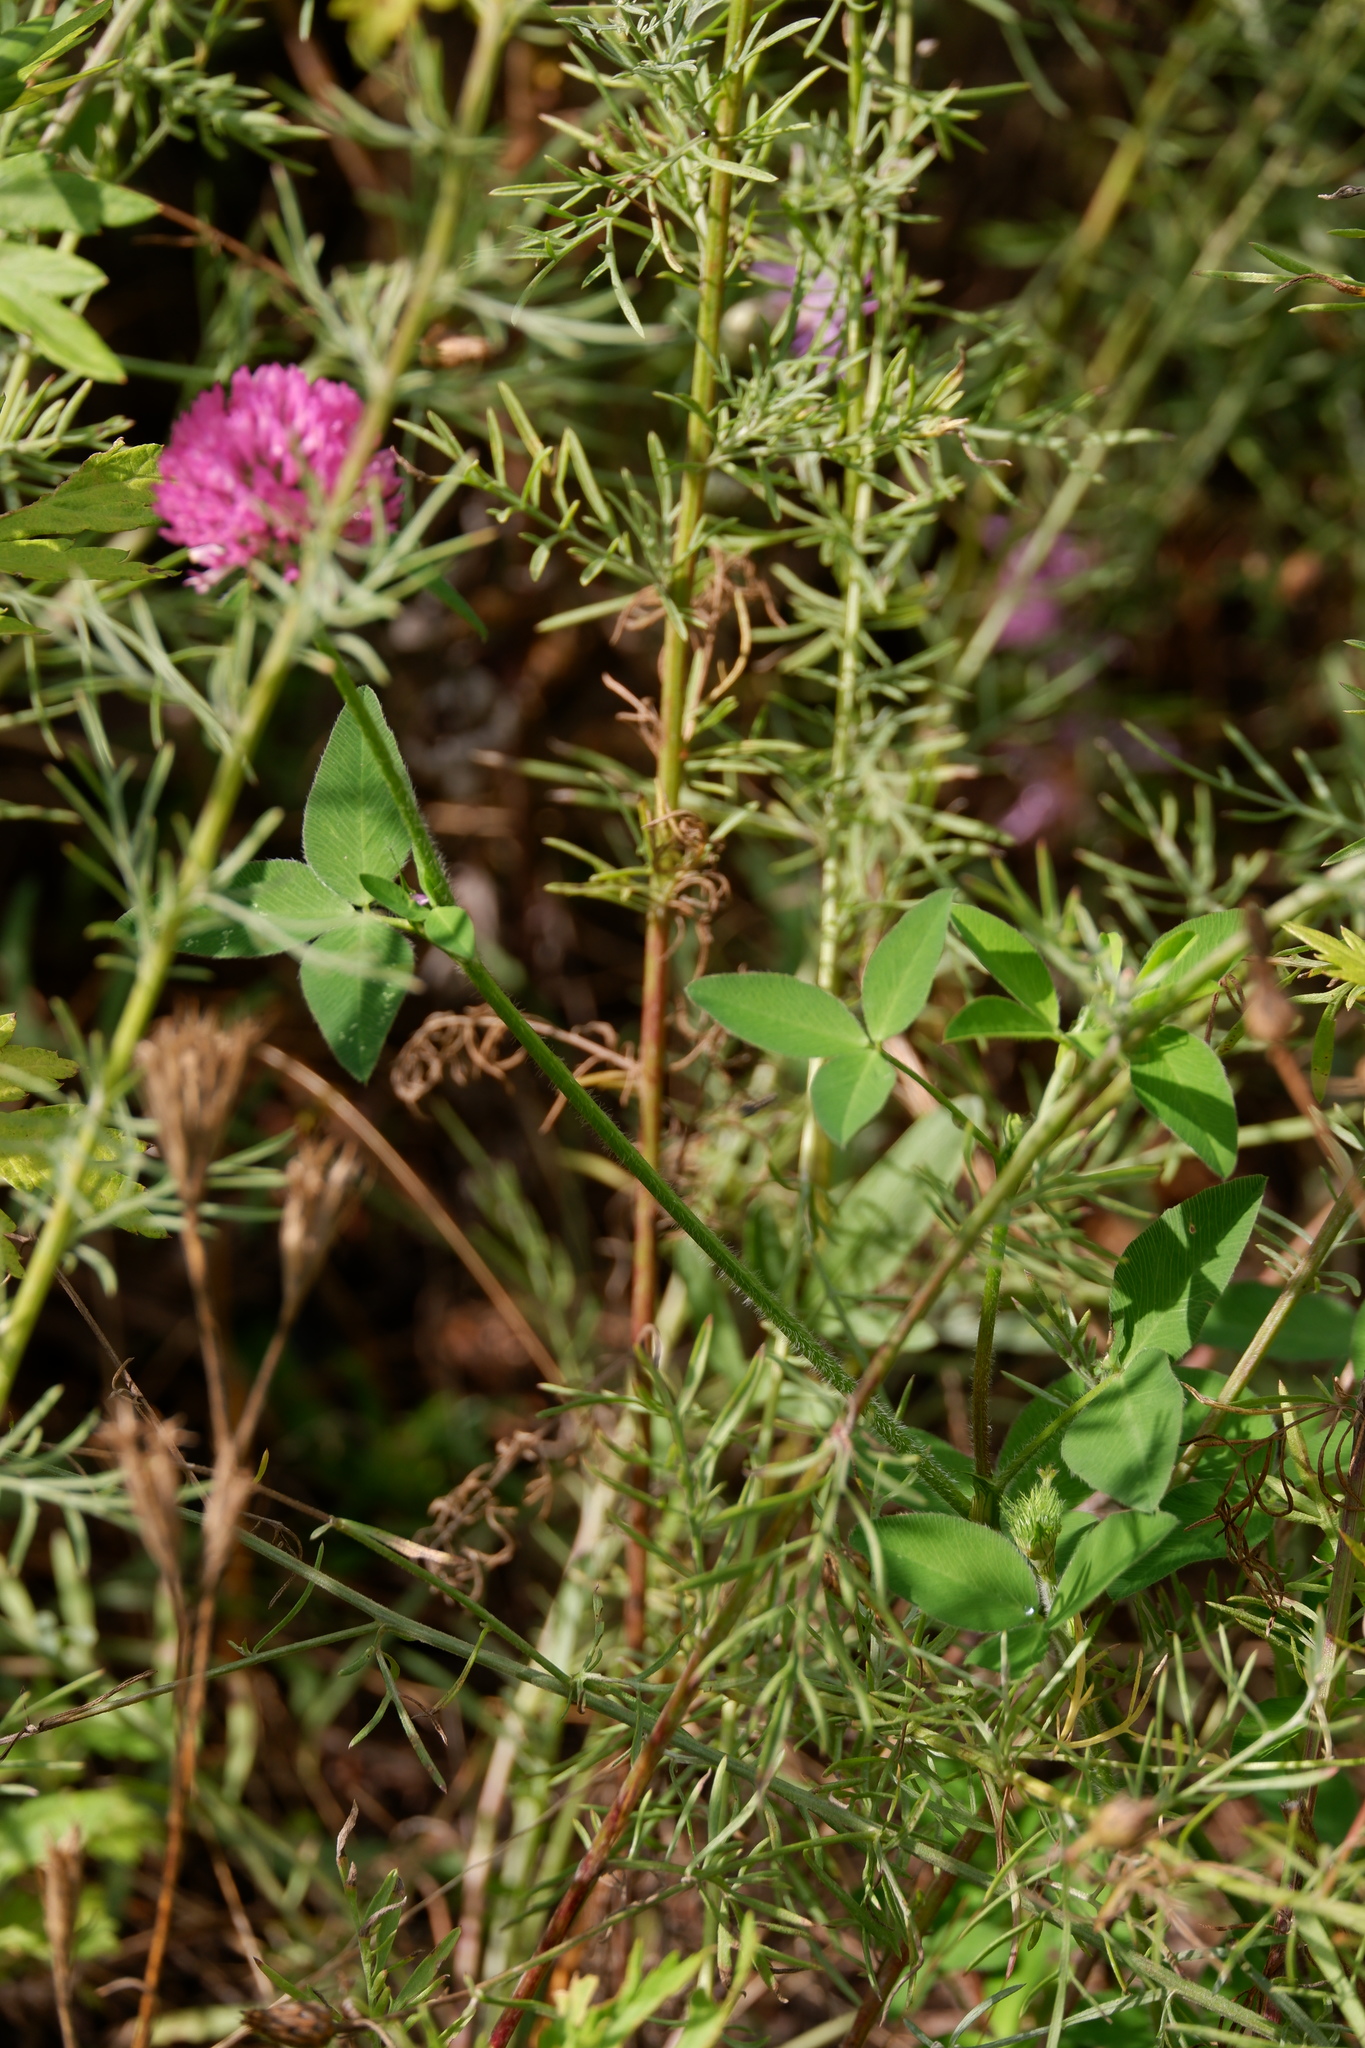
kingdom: Plantae
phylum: Tracheophyta
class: Magnoliopsida
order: Fabales
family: Fabaceae
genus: Trifolium
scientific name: Trifolium pratense
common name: Red clover
